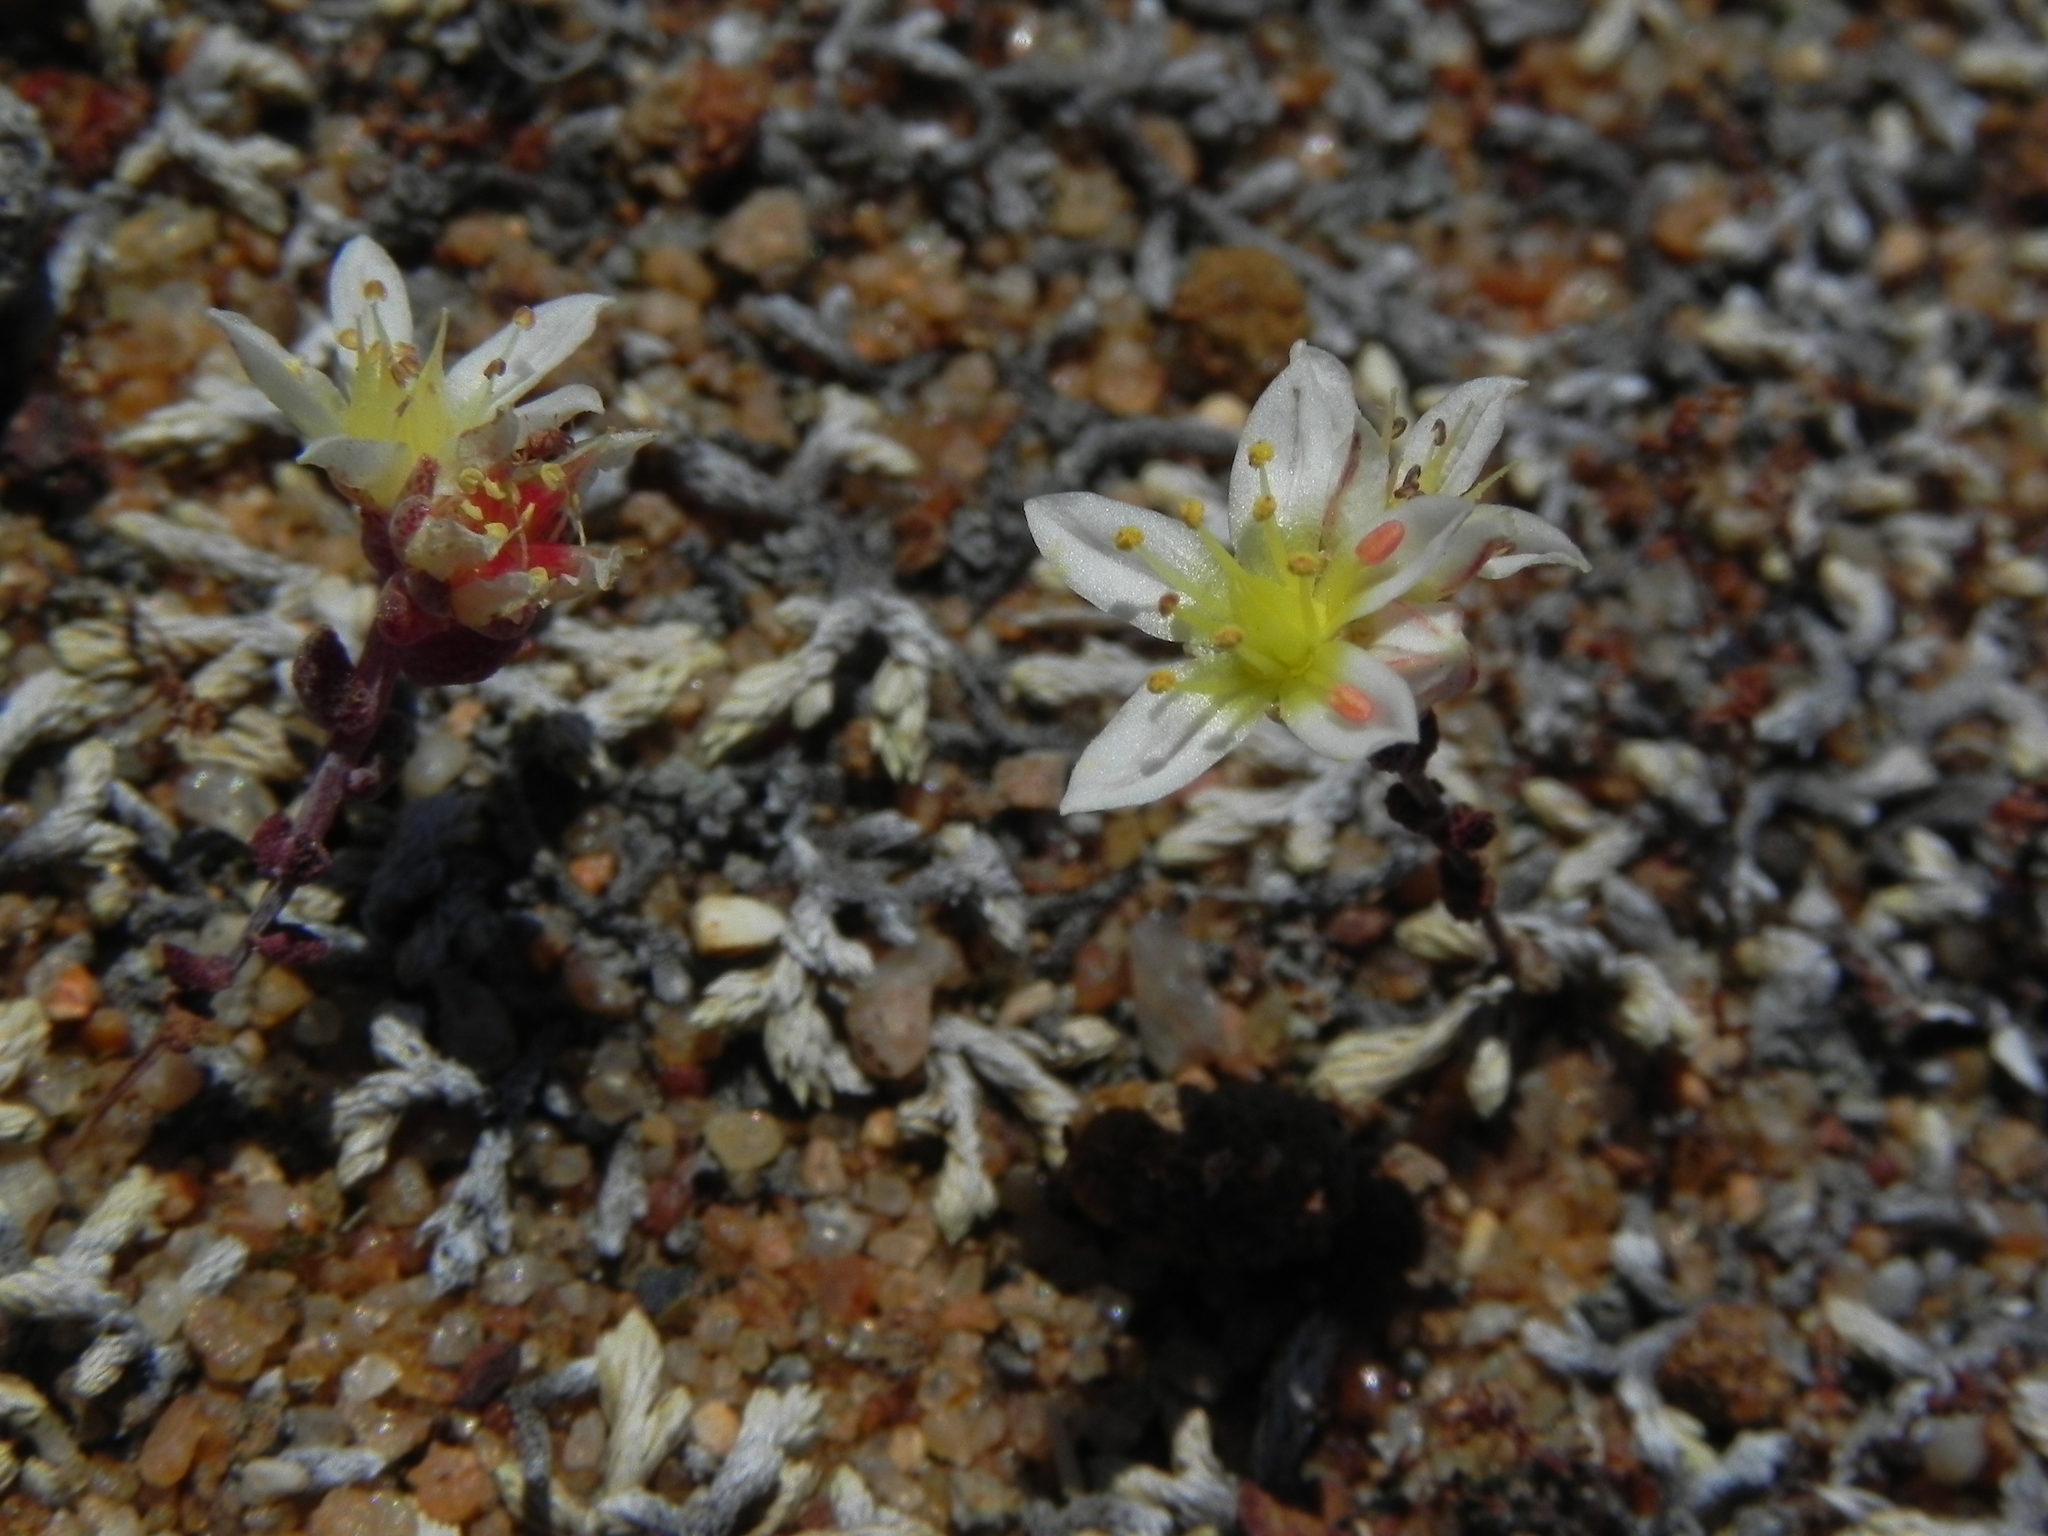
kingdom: Plantae
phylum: Tracheophyta
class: Magnoliopsida
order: Saxifragales
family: Crassulaceae
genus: Dudleya
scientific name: Dudleya blochmaniae
